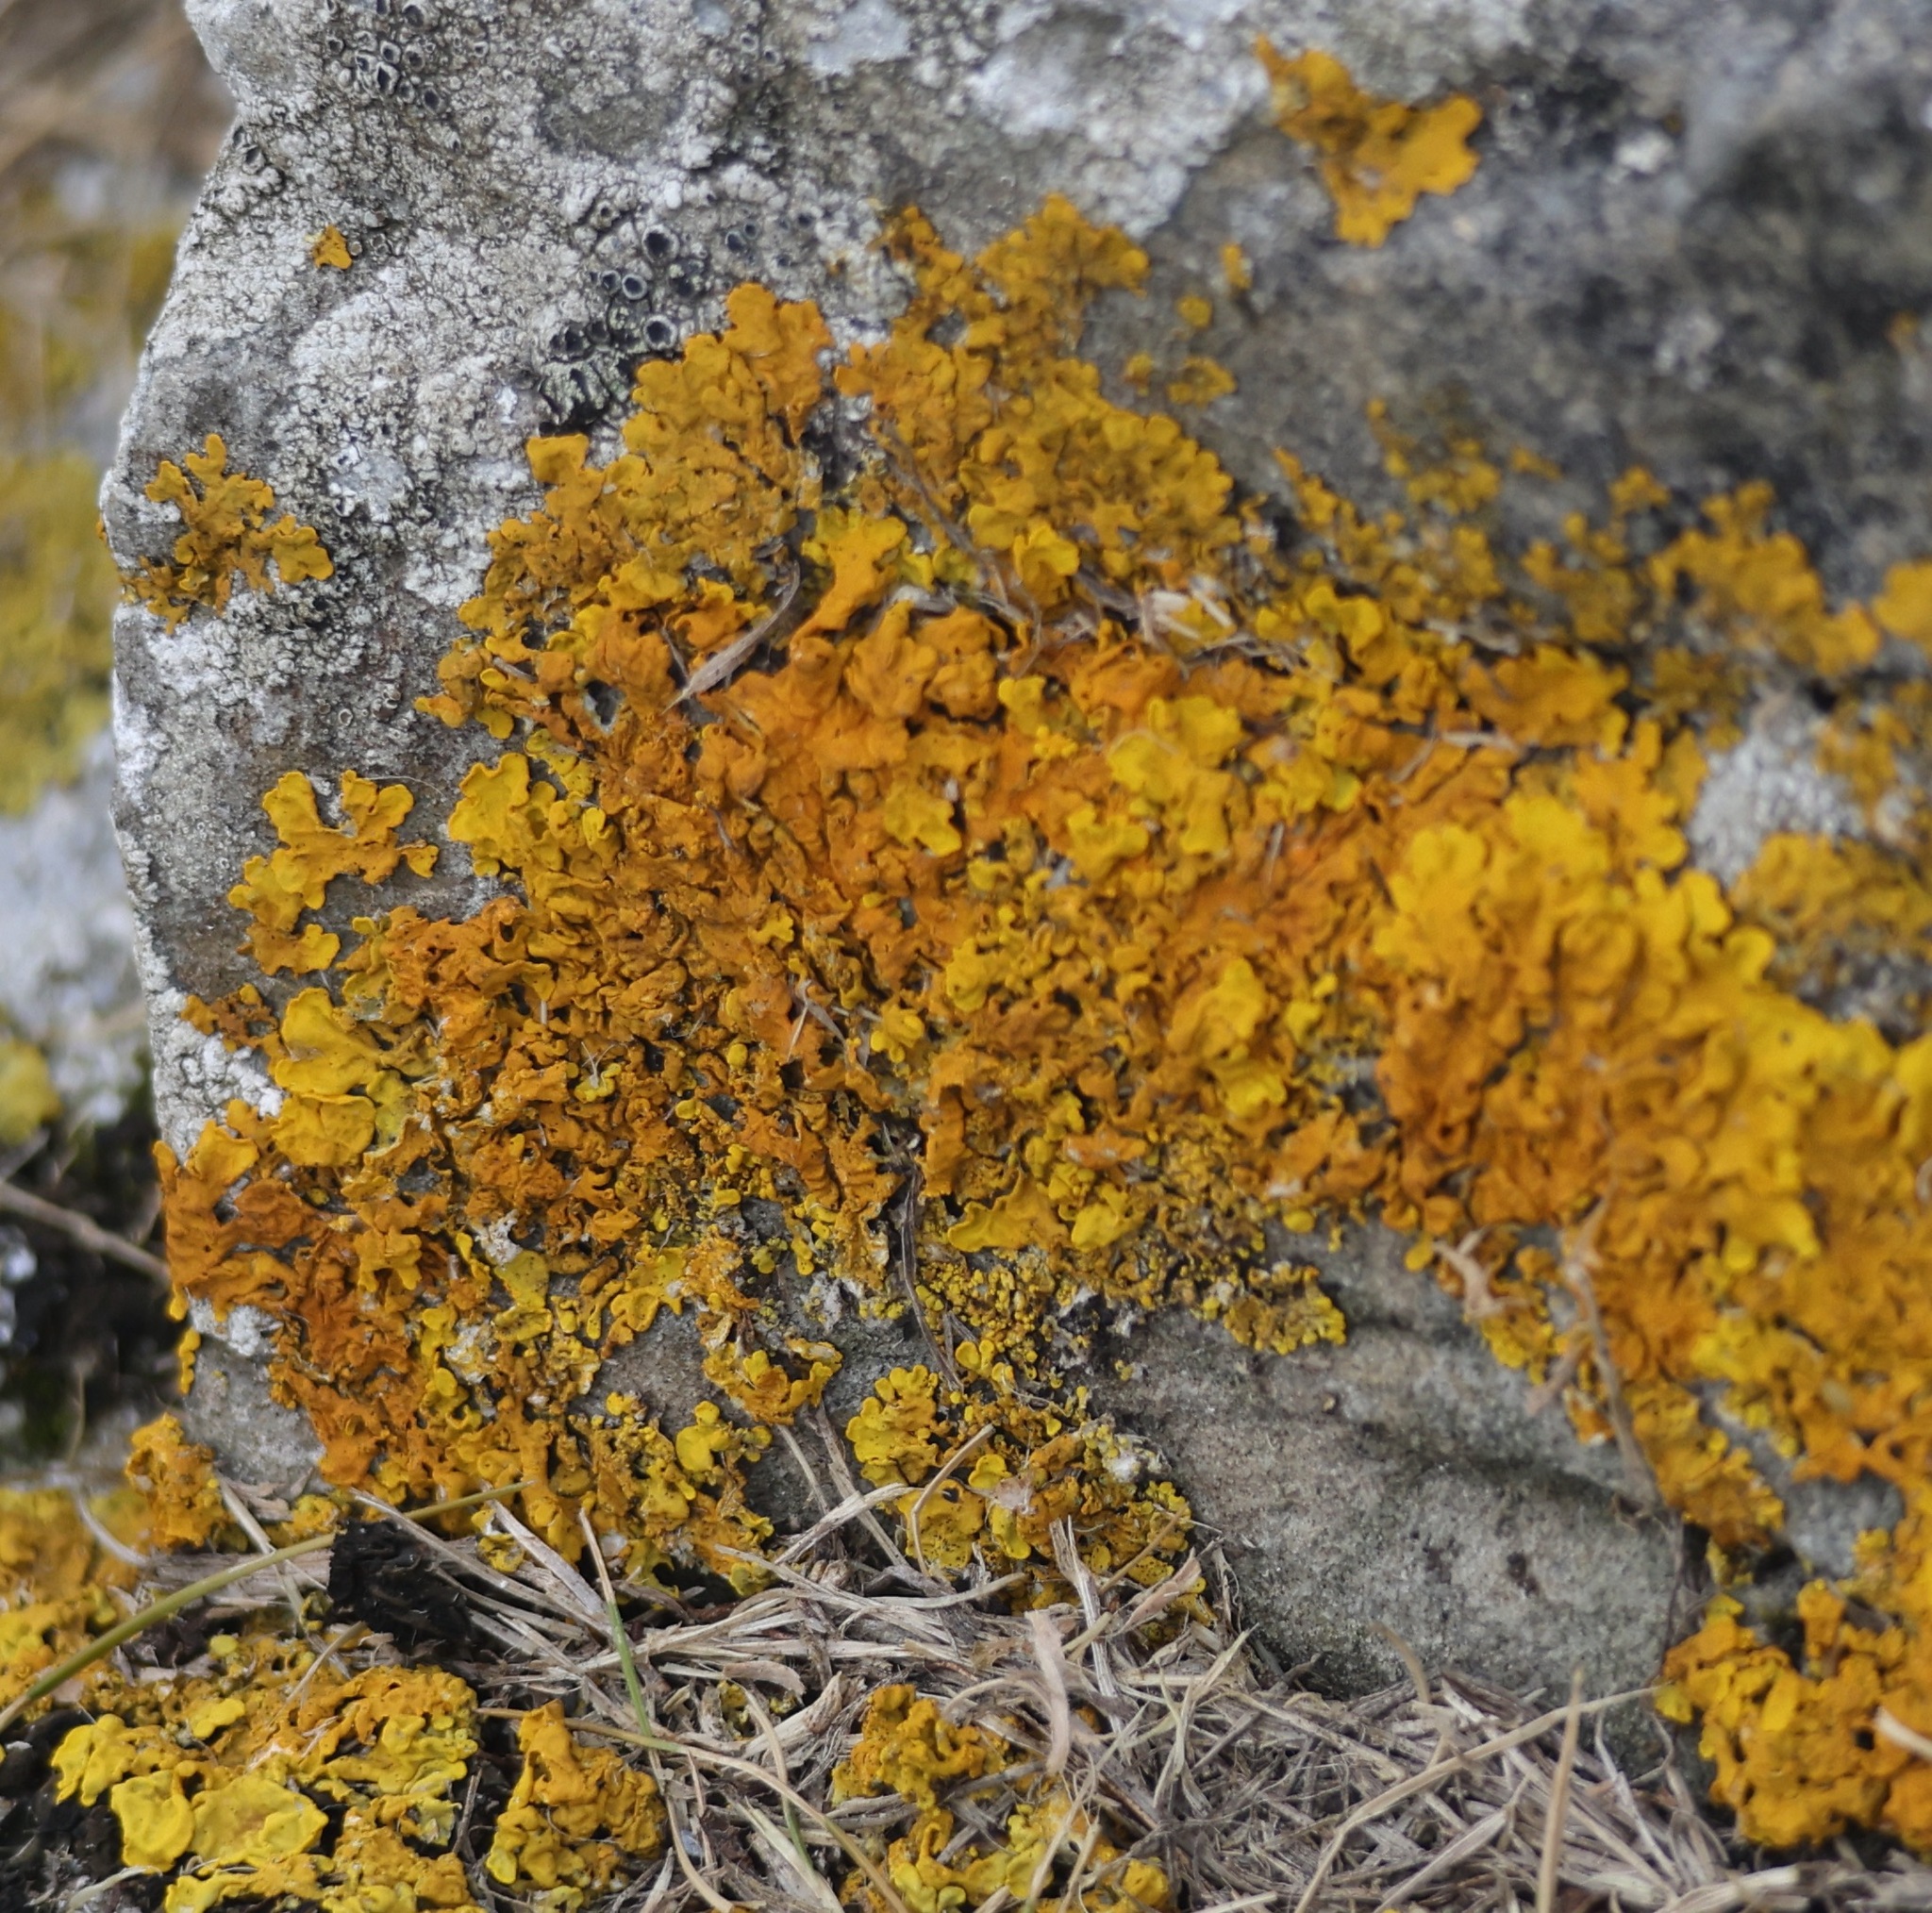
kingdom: Fungi
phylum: Ascomycota
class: Lecanoromycetes
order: Teloschistales
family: Teloschistaceae
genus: Xanthoria
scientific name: Xanthoria aureola
